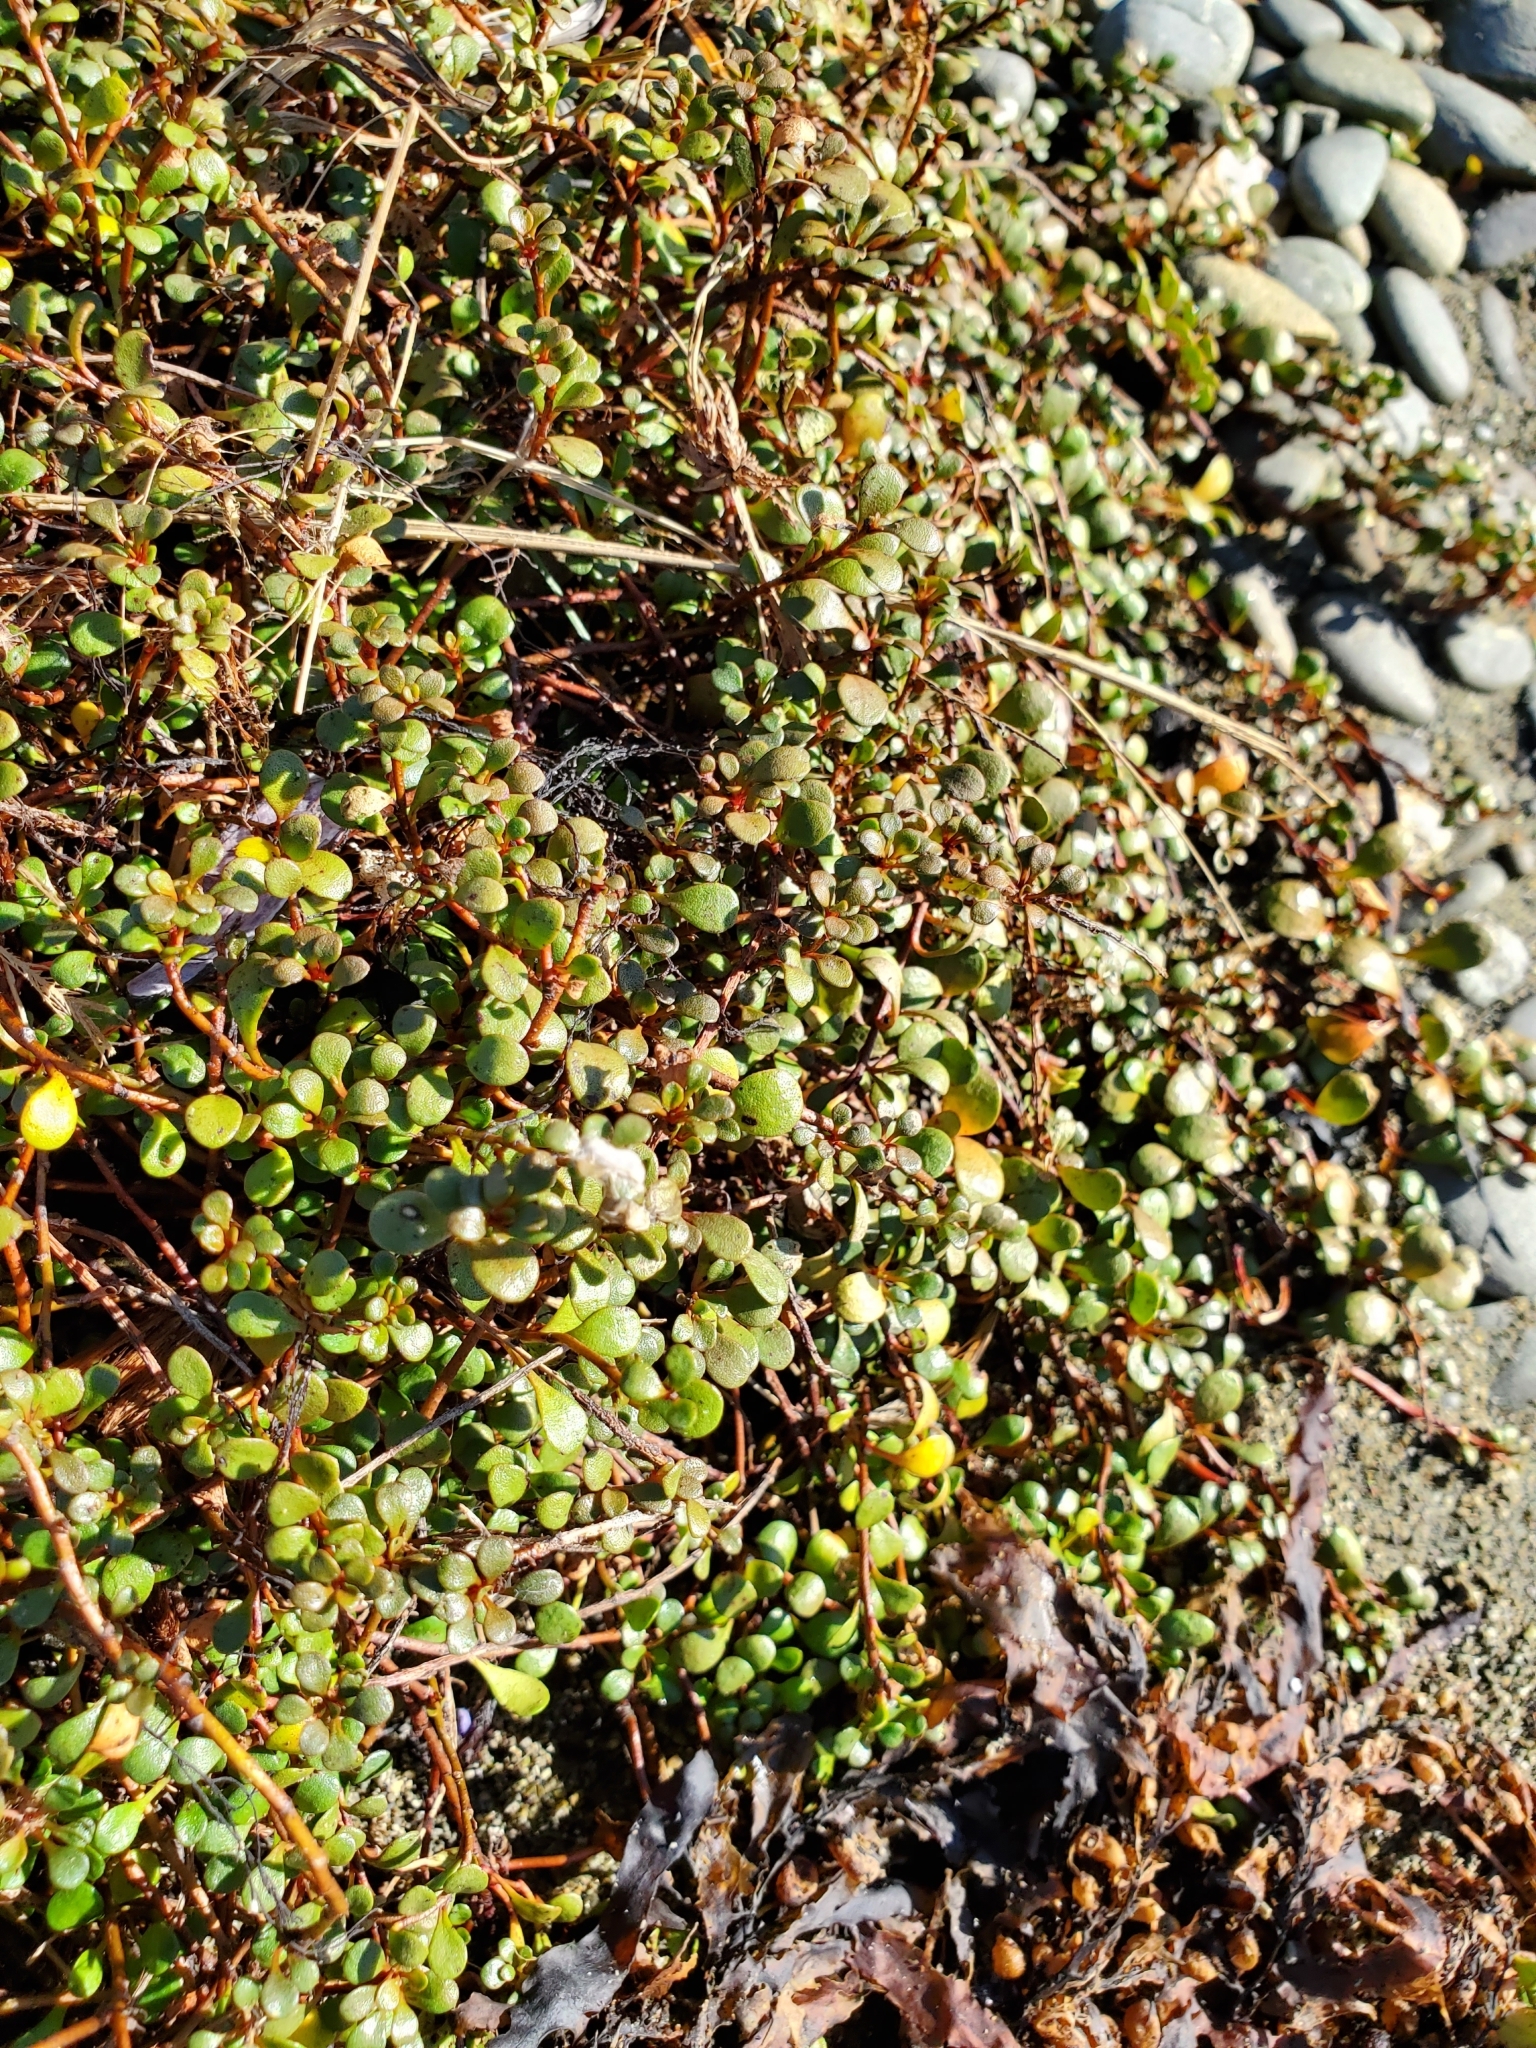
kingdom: Plantae
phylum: Tracheophyta
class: Magnoliopsida
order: Ericales
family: Primulaceae
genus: Samolus
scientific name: Samolus repens
